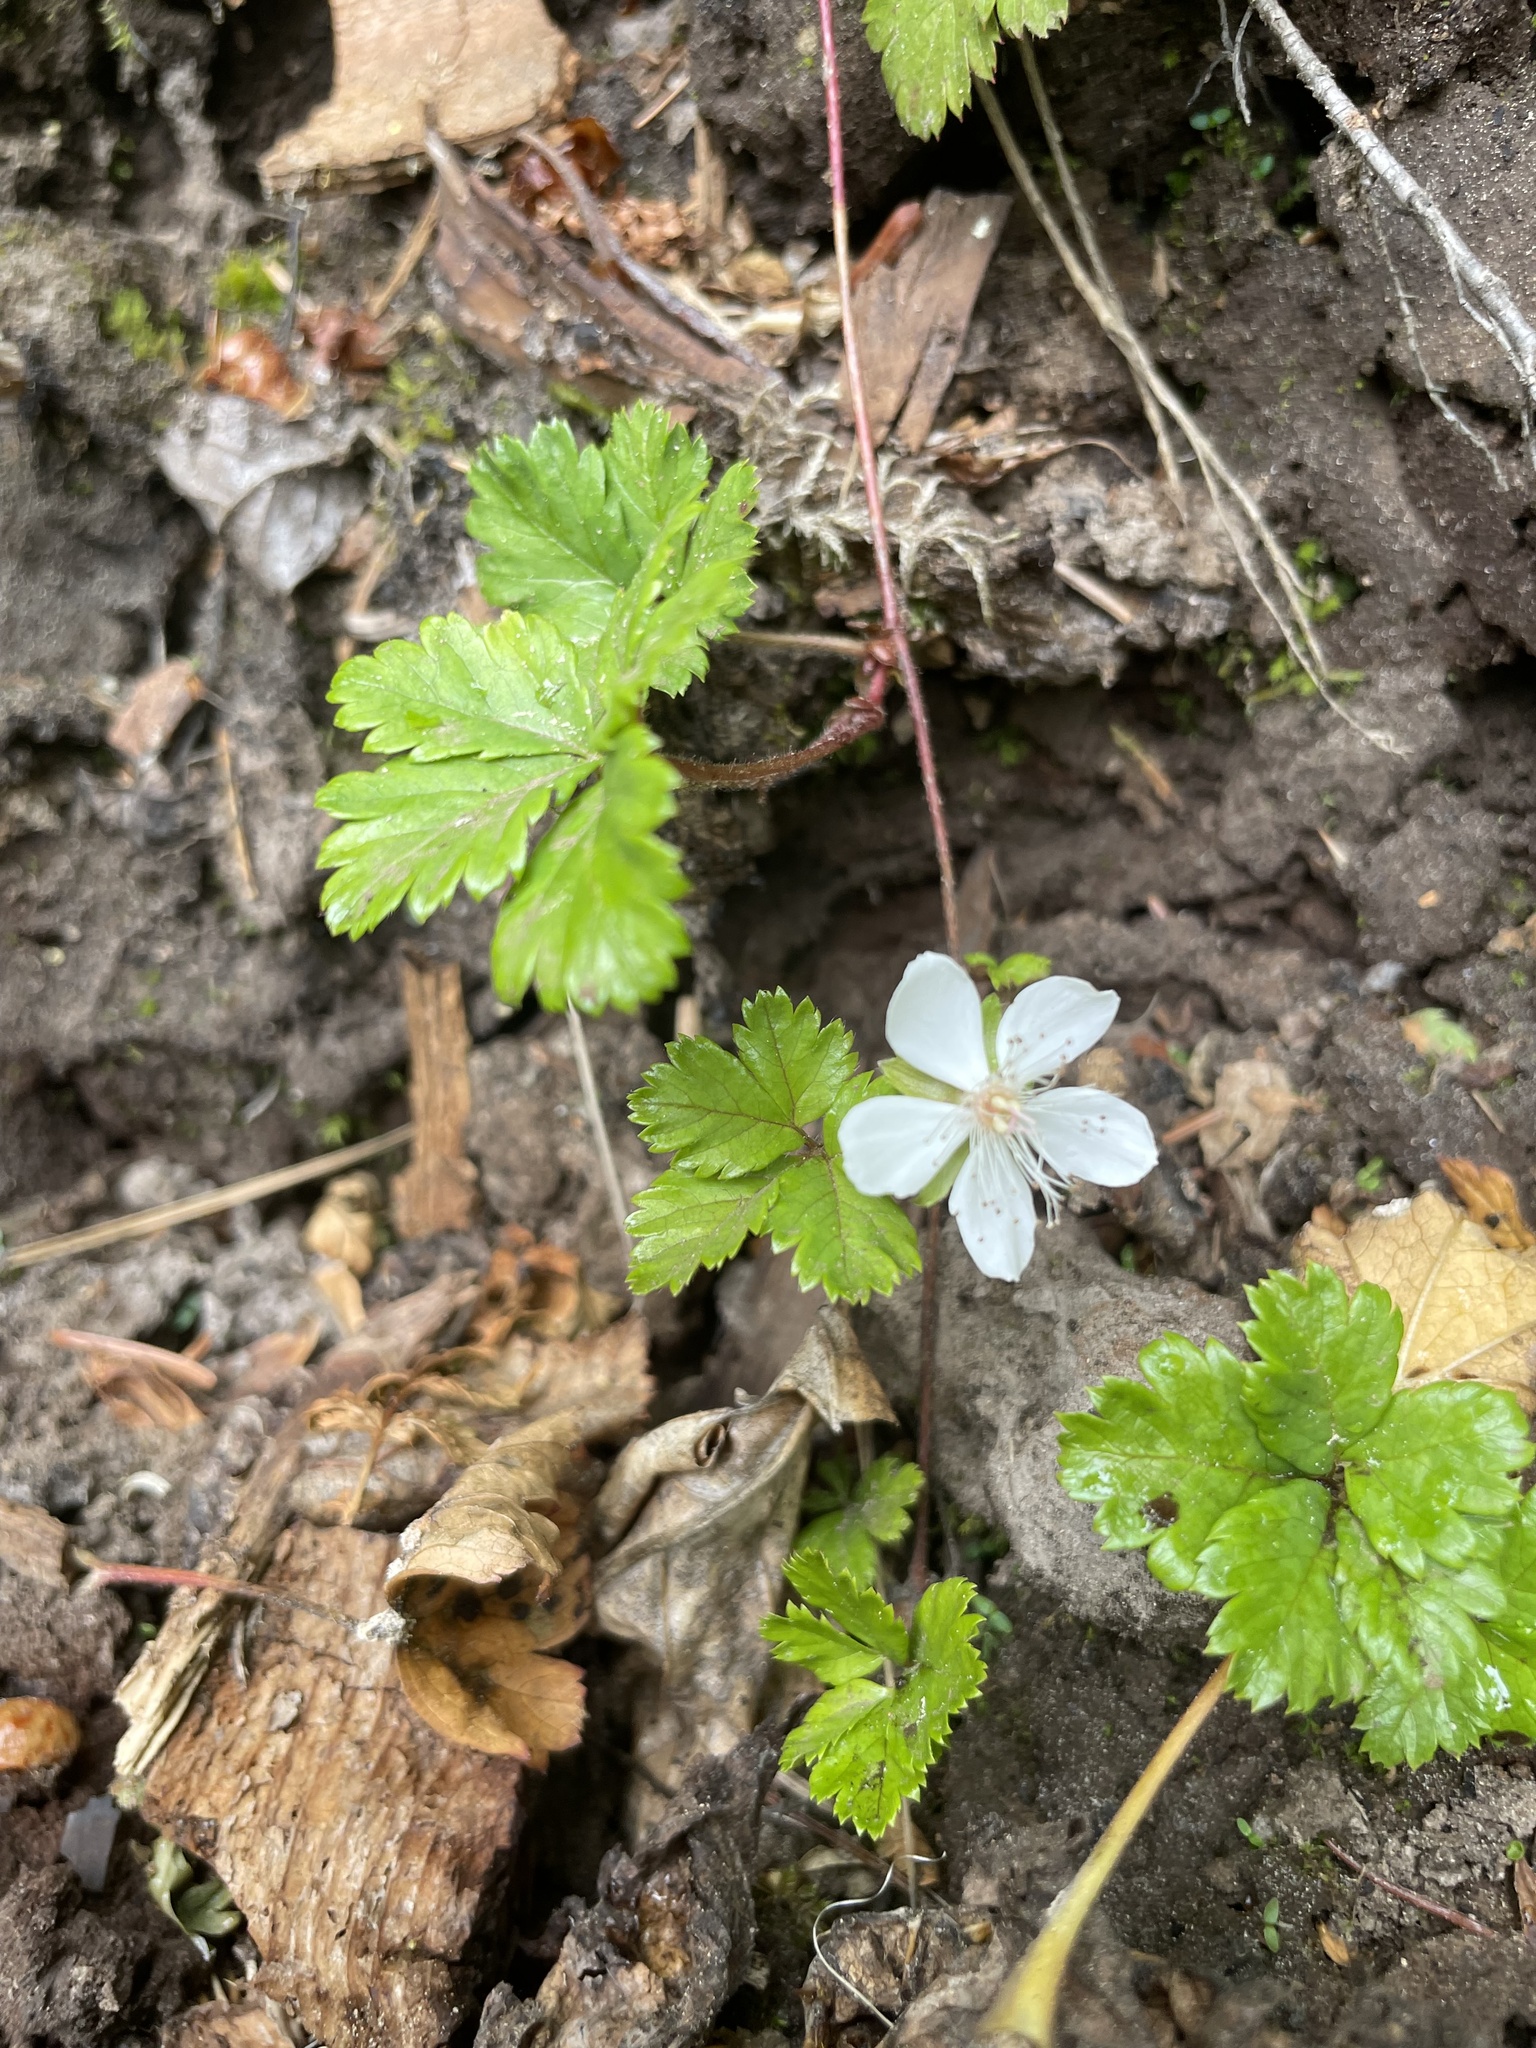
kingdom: Plantae
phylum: Tracheophyta
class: Magnoliopsida
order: Rosales
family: Rosaceae
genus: Rubus
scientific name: Rubus pedatus
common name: Creeping raspberry
